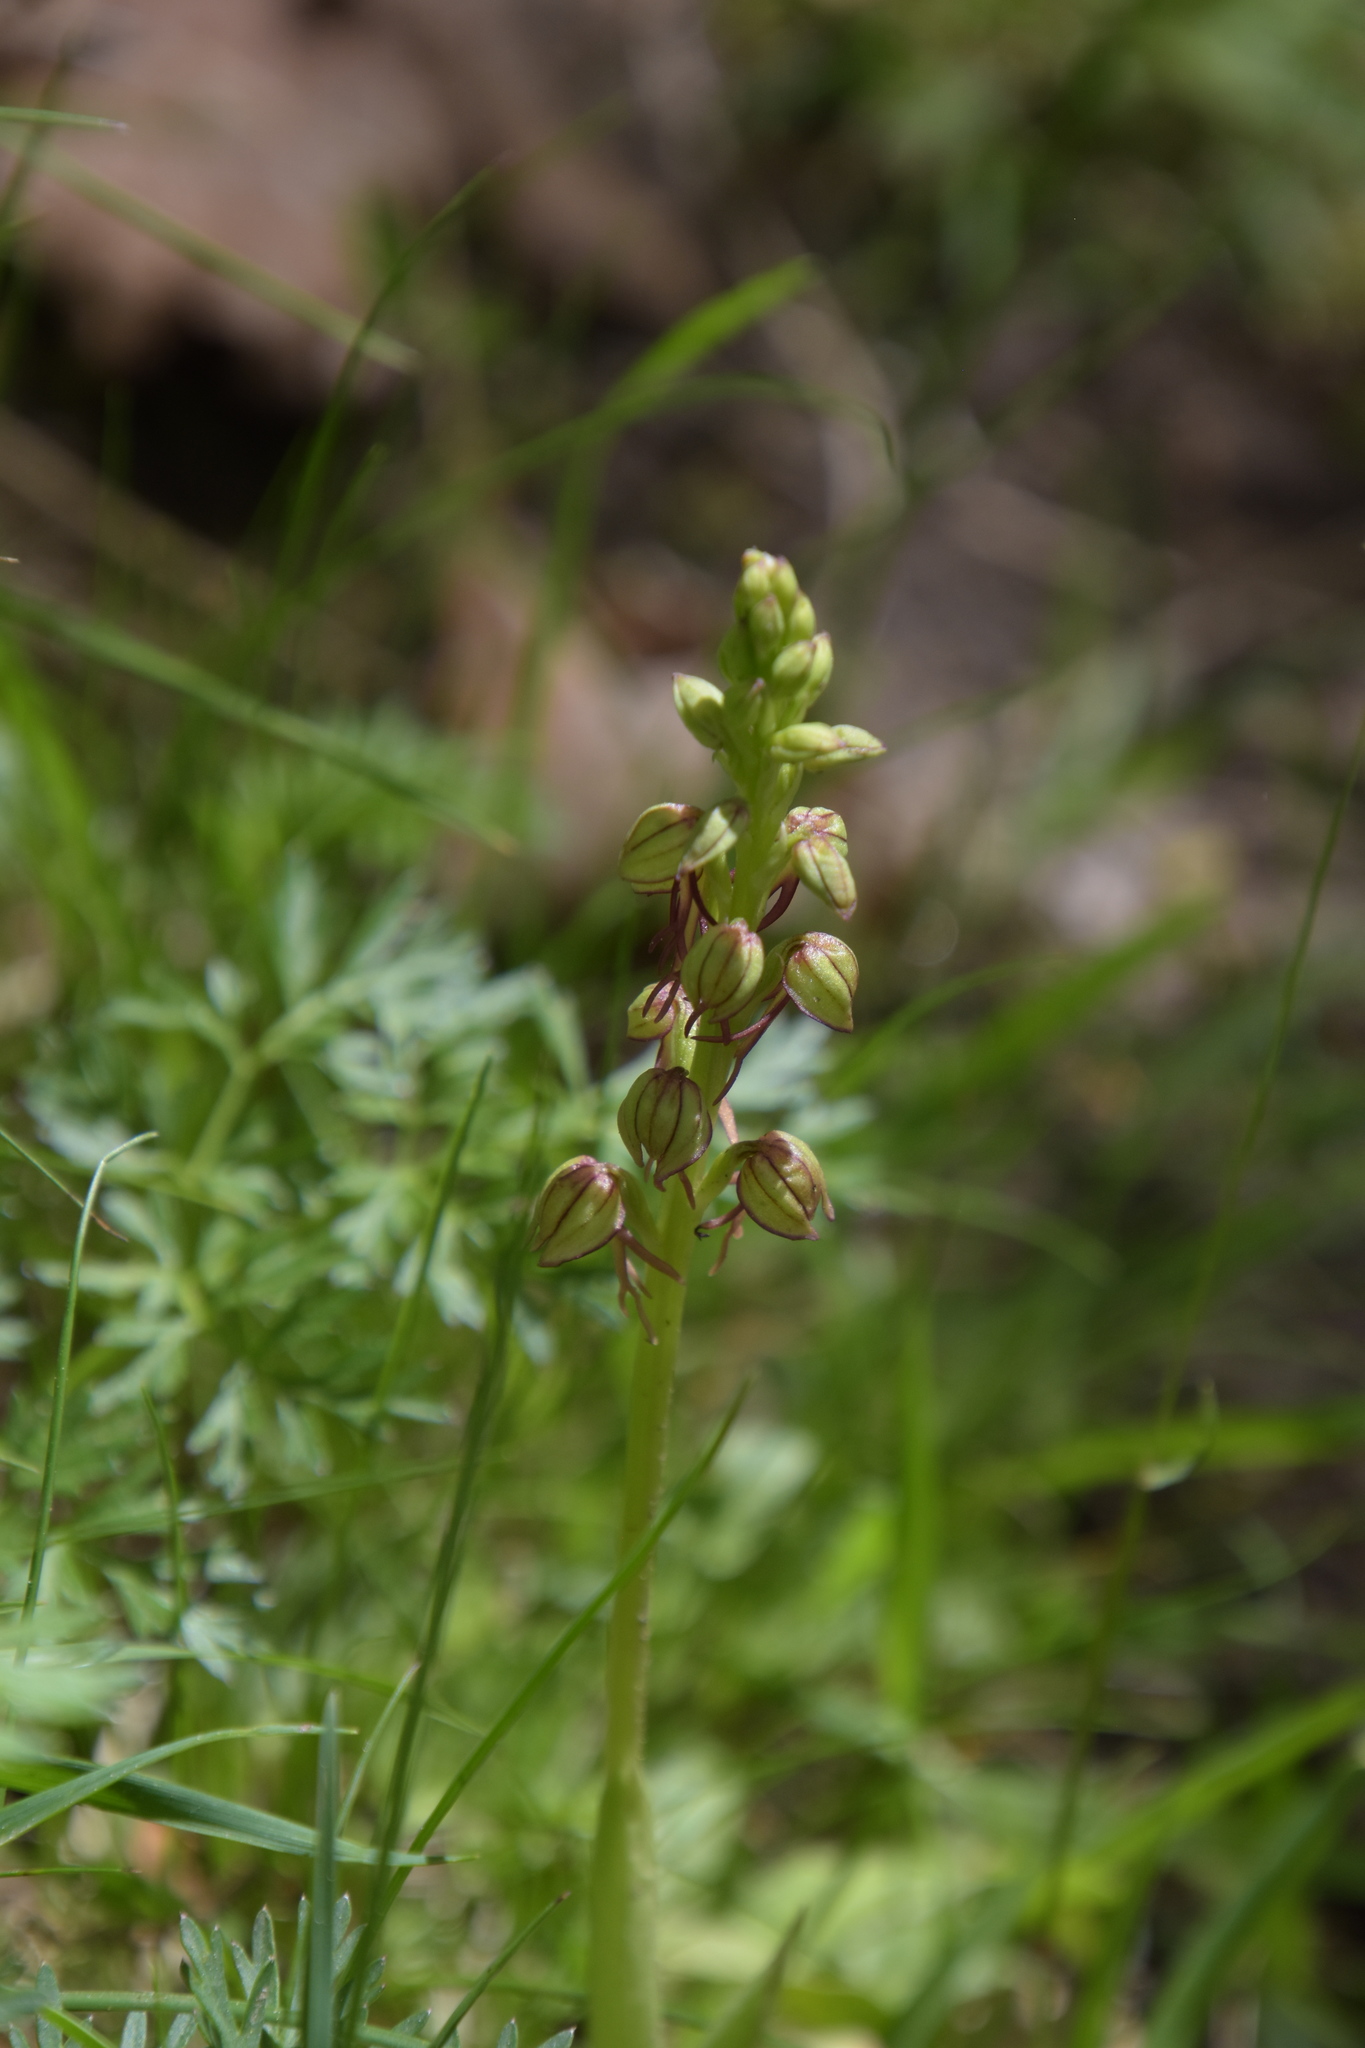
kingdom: Plantae
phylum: Tracheophyta
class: Liliopsida
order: Asparagales
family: Orchidaceae
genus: Orchis
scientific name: Orchis anthropophora
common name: Man orchid
